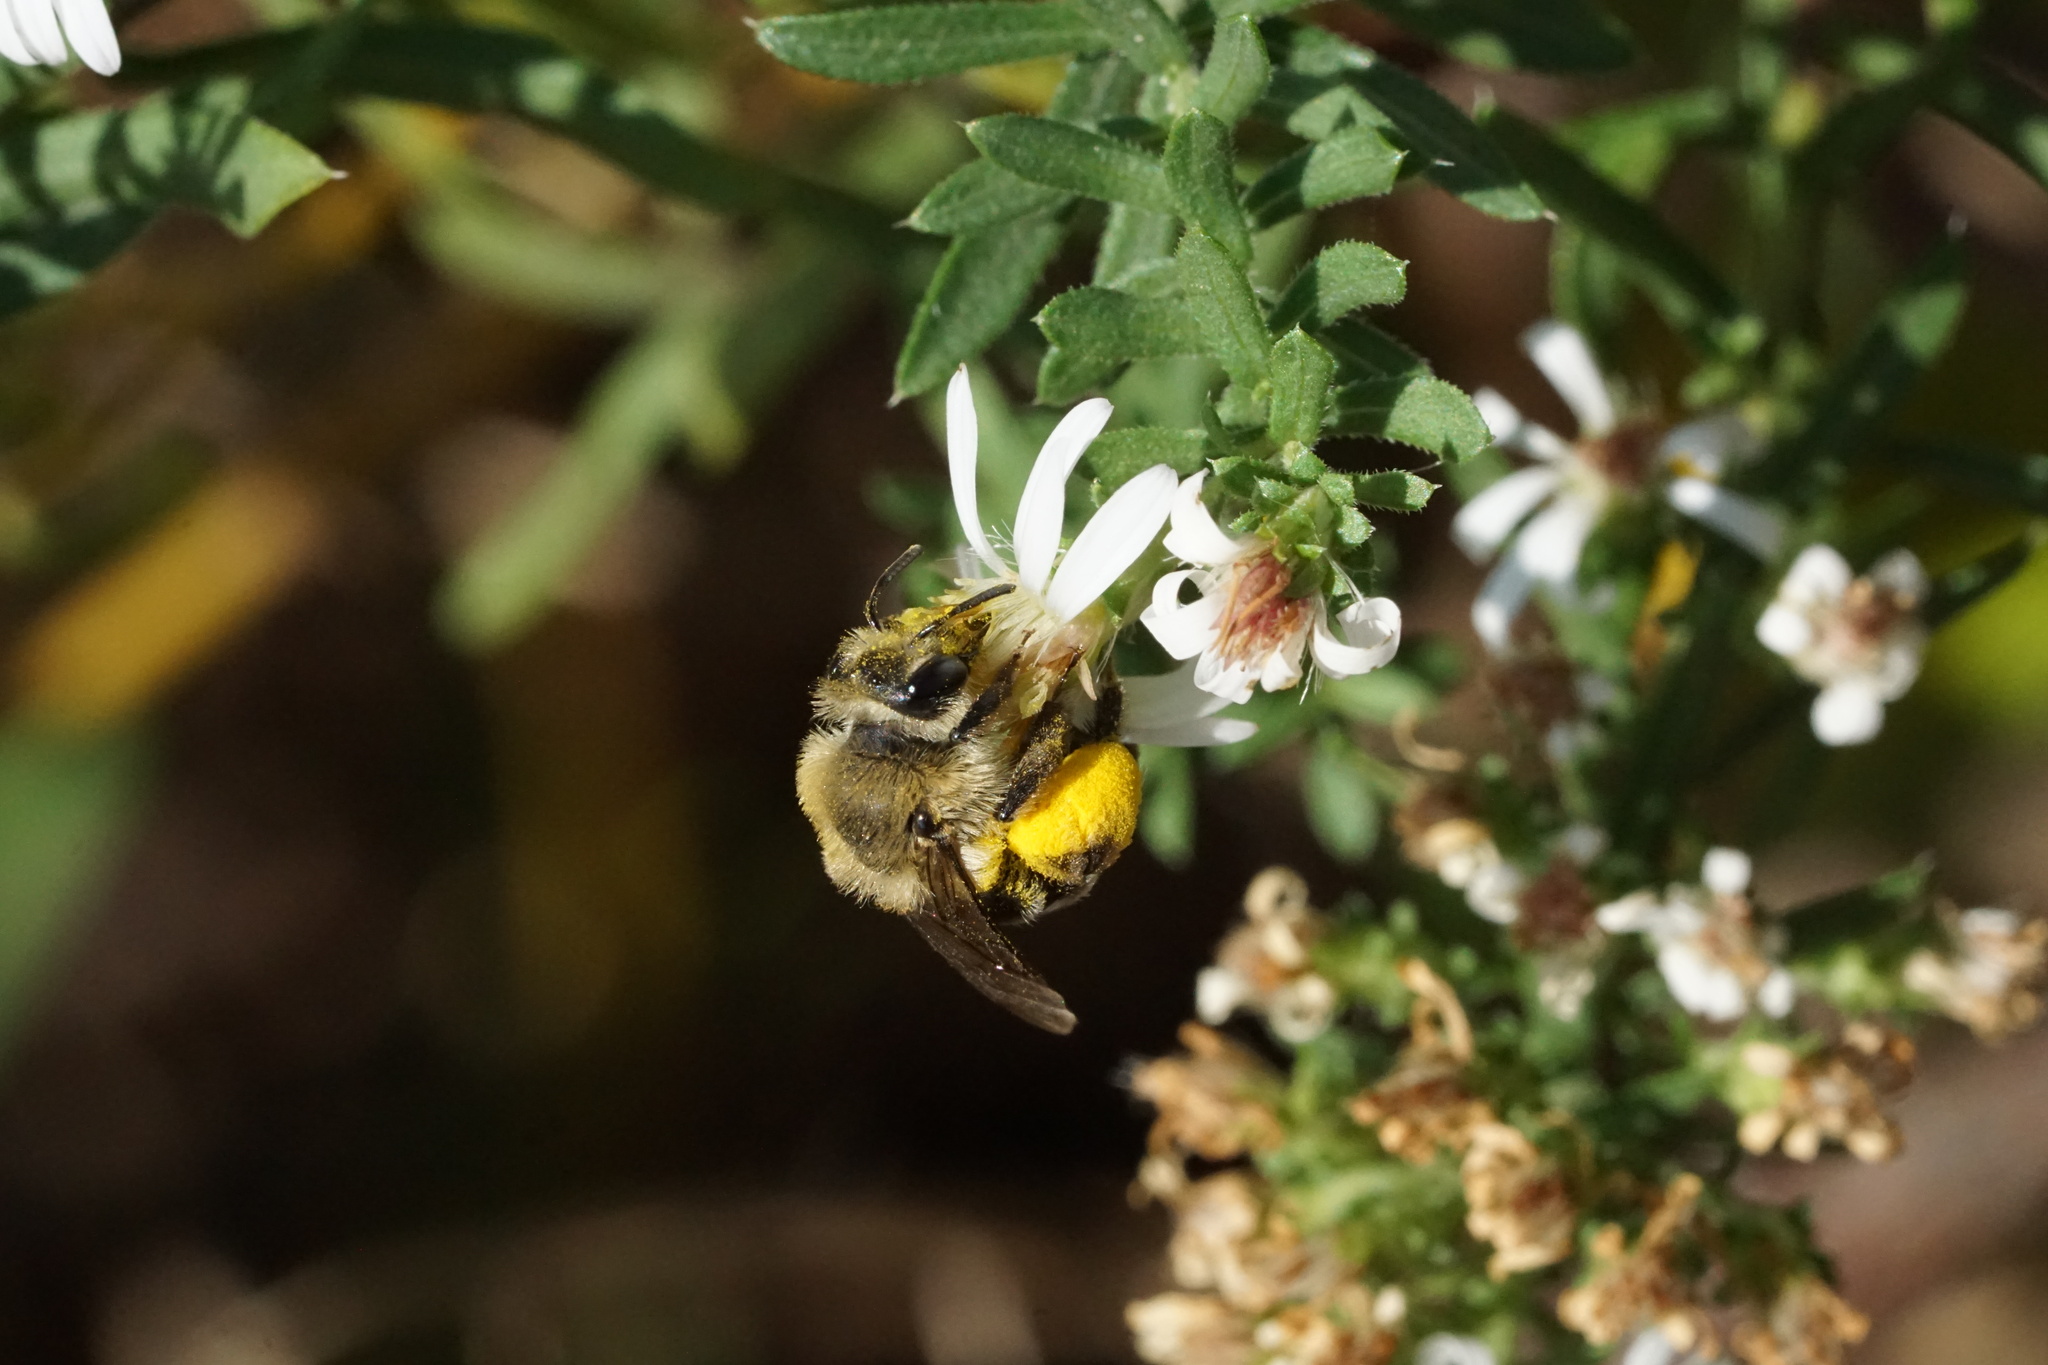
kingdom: Animalia
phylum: Arthropoda
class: Insecta
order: Hymenoptera
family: Andrenidae
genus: Andrena
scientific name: Andrena asteris
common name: Aster mining bee
